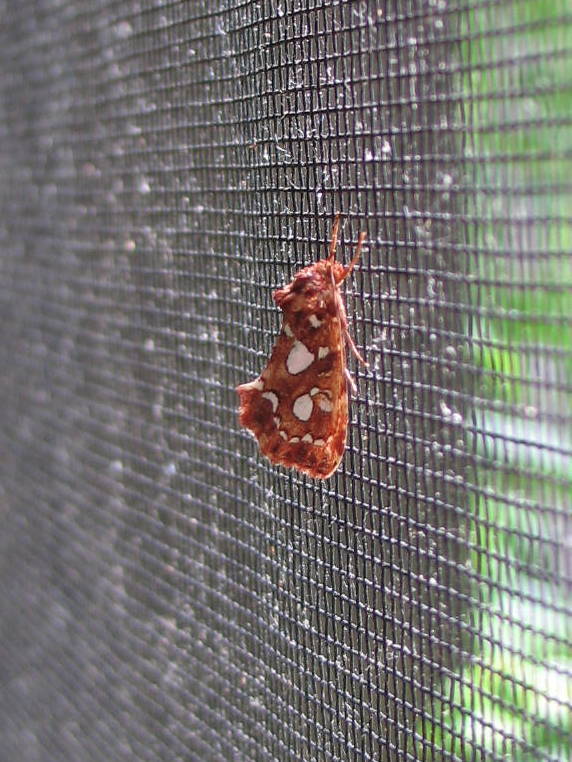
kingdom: Animalia
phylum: Arthropoda
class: Insecta
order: Lepidoptera
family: Noctuidae
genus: Callopistria
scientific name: Callopistria cordata
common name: Silver-spotted fern moth
